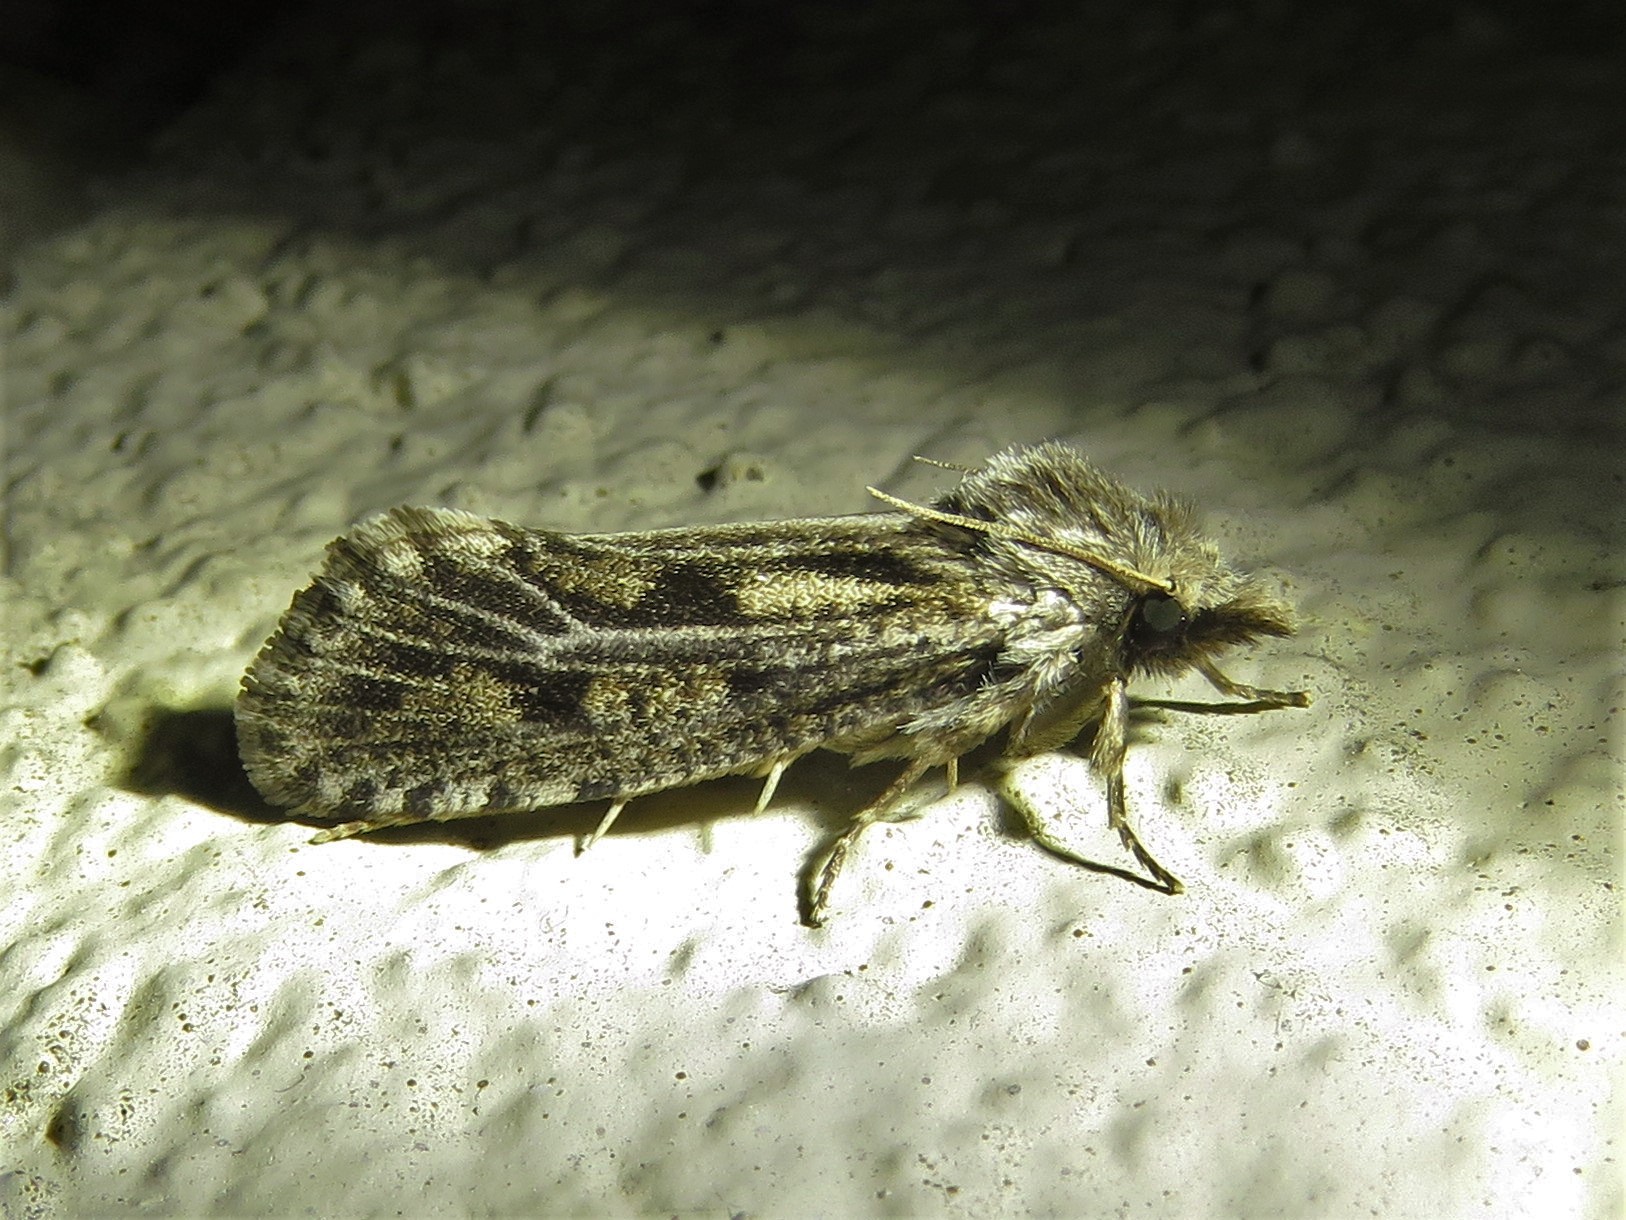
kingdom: Animalia
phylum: Arthropoda
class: Insecta
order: Lepidoptera
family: Tineidae
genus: Acrolophus
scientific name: Acrolophus popeanella
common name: Clemens' grass tubeworm moth
